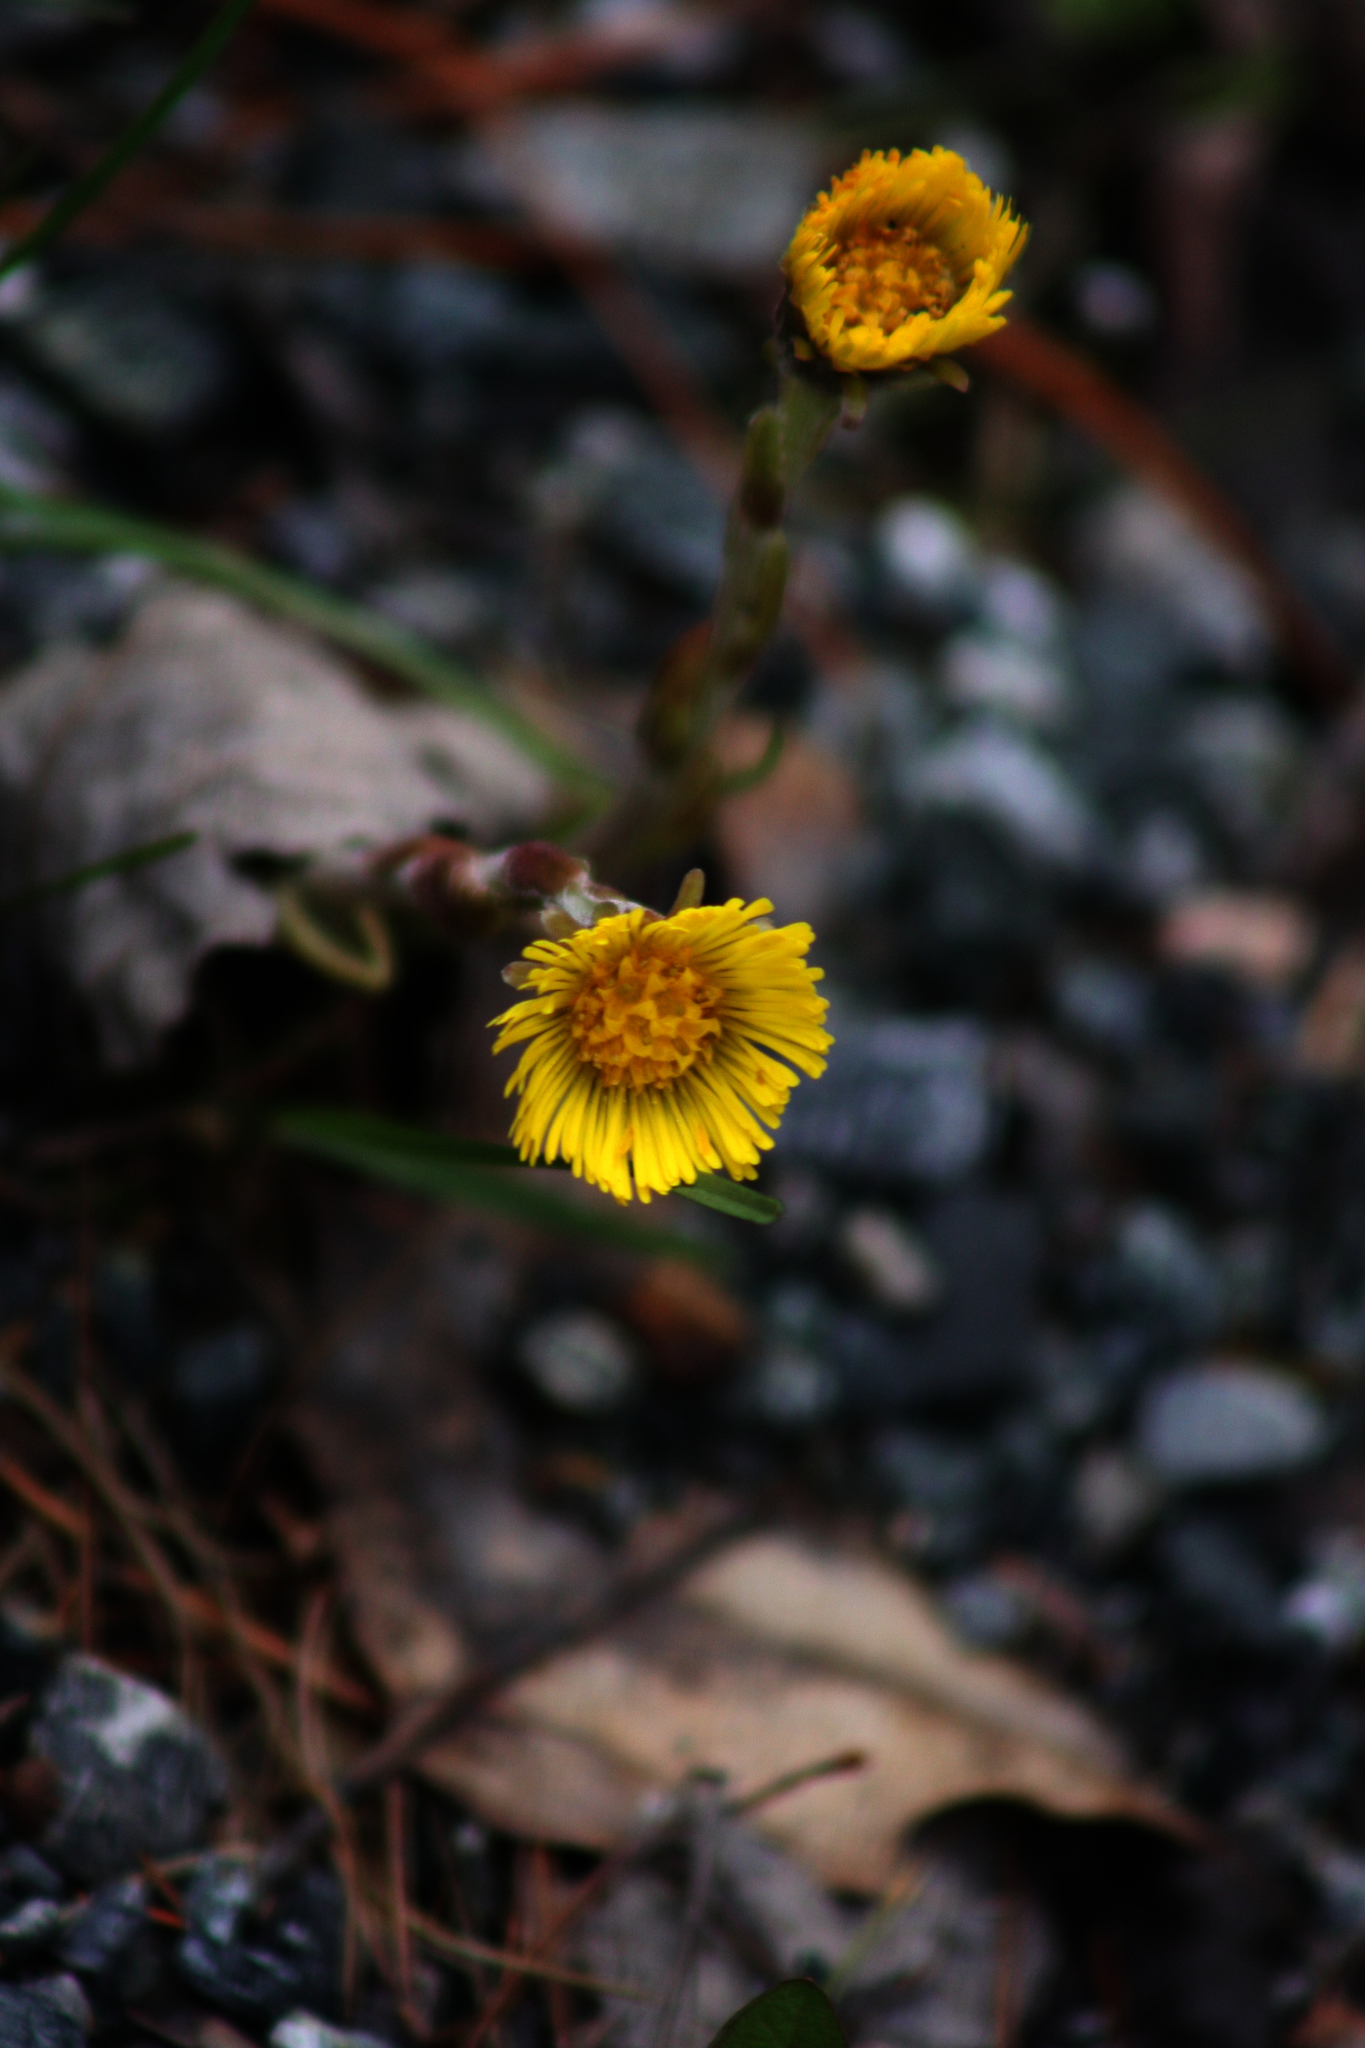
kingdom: Plantae
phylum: Tracheophyta
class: Magnoliopsida
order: Asterales
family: Asteraceae
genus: Tussilago
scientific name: Tussilago farfara
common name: Coltsfoot
